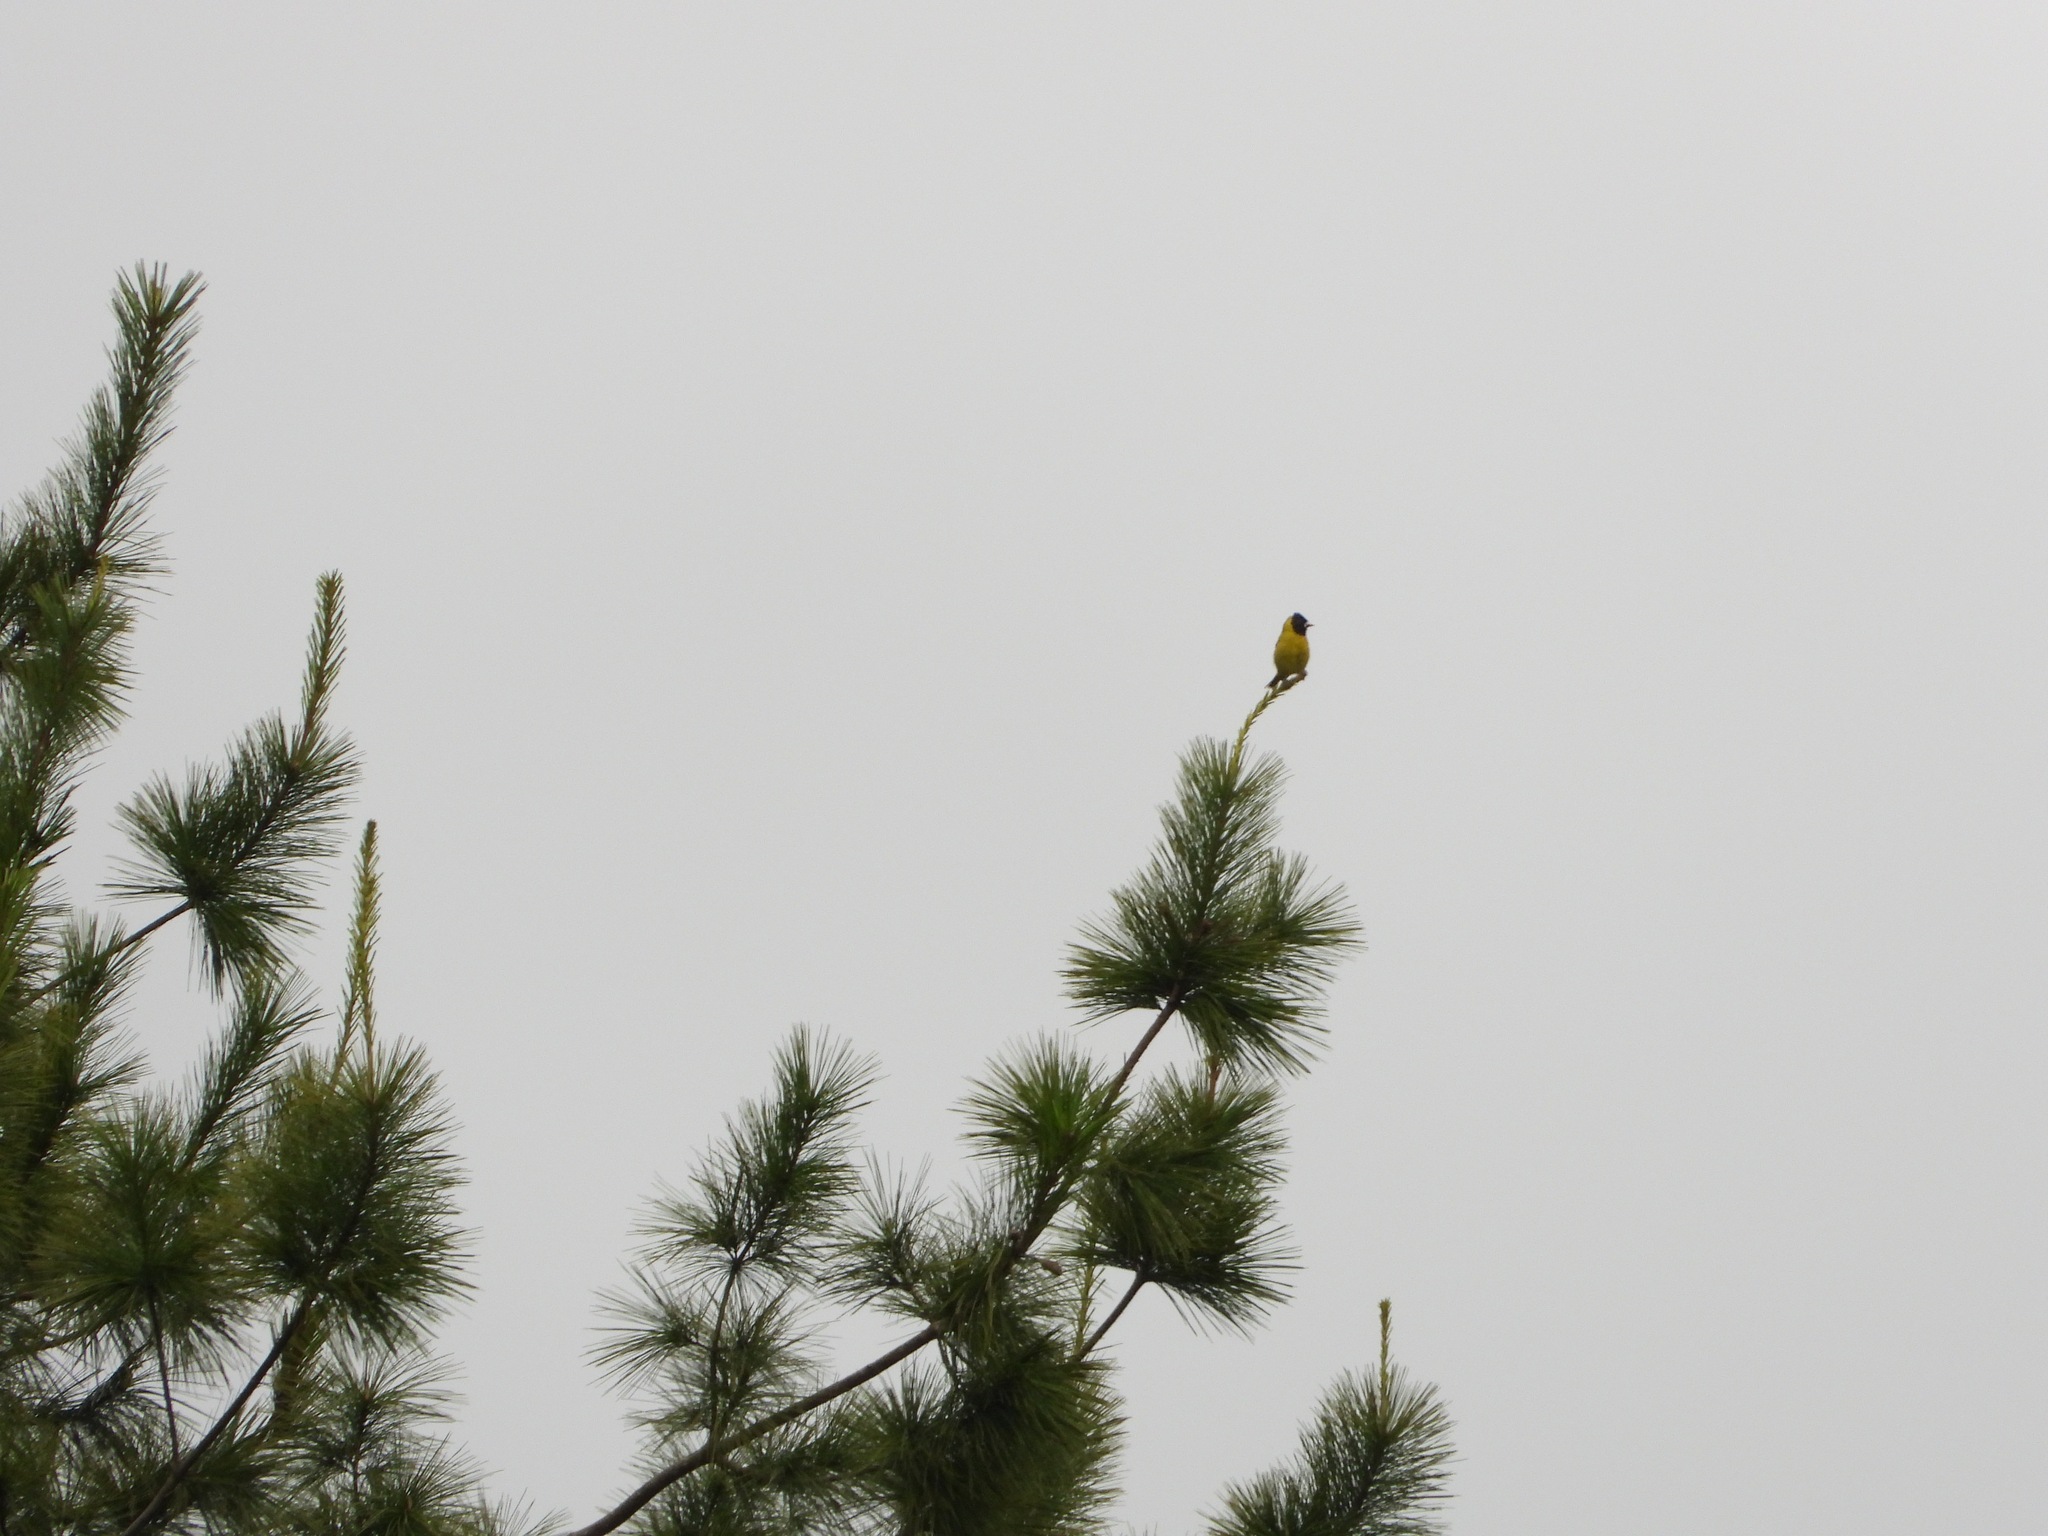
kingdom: Animalia
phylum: Chordata
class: Aves
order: Passeriformes
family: Fringillidae
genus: Spinus
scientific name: Spinus notatus
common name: Black-headed siskin
